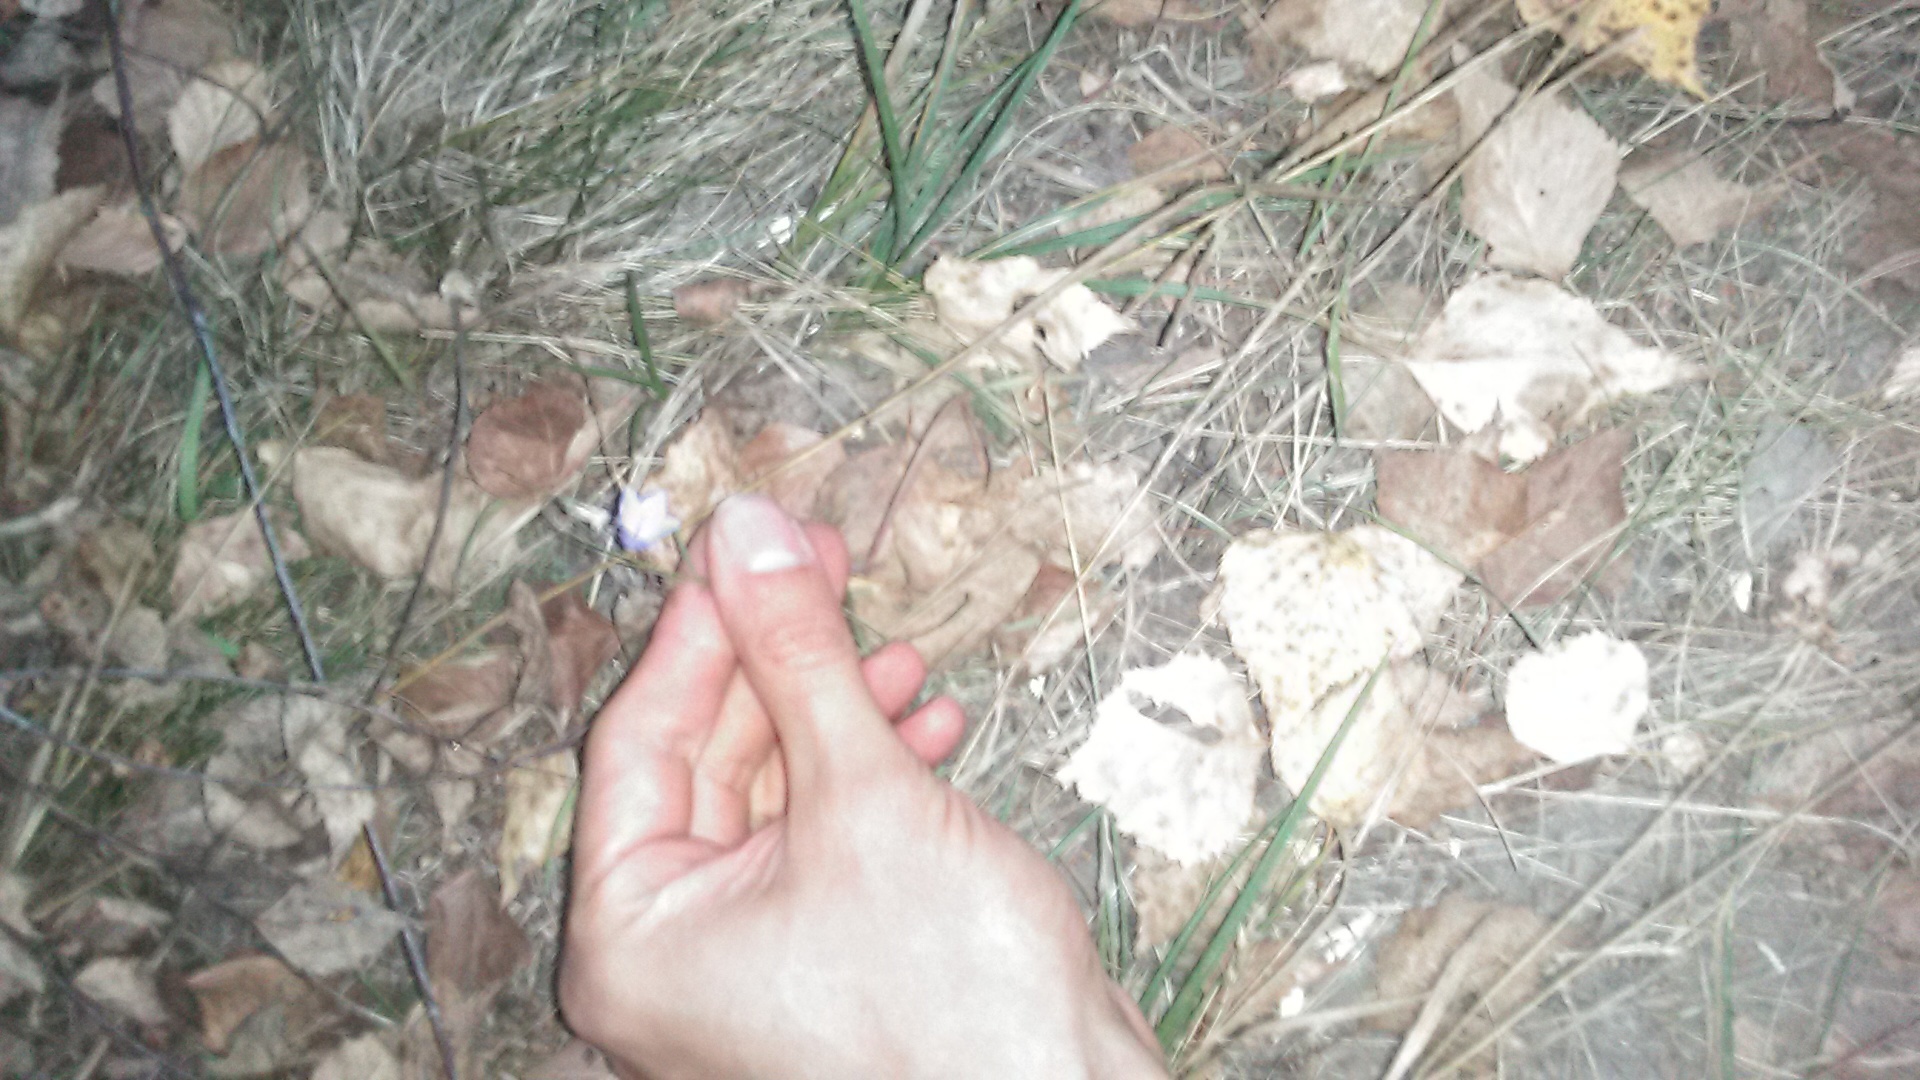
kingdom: Plantae
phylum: Tracheophyta
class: Magnoliopsida
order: Asterales
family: Campanulaceae
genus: Campanula
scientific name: Campanula rotundifolia
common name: Harebell
